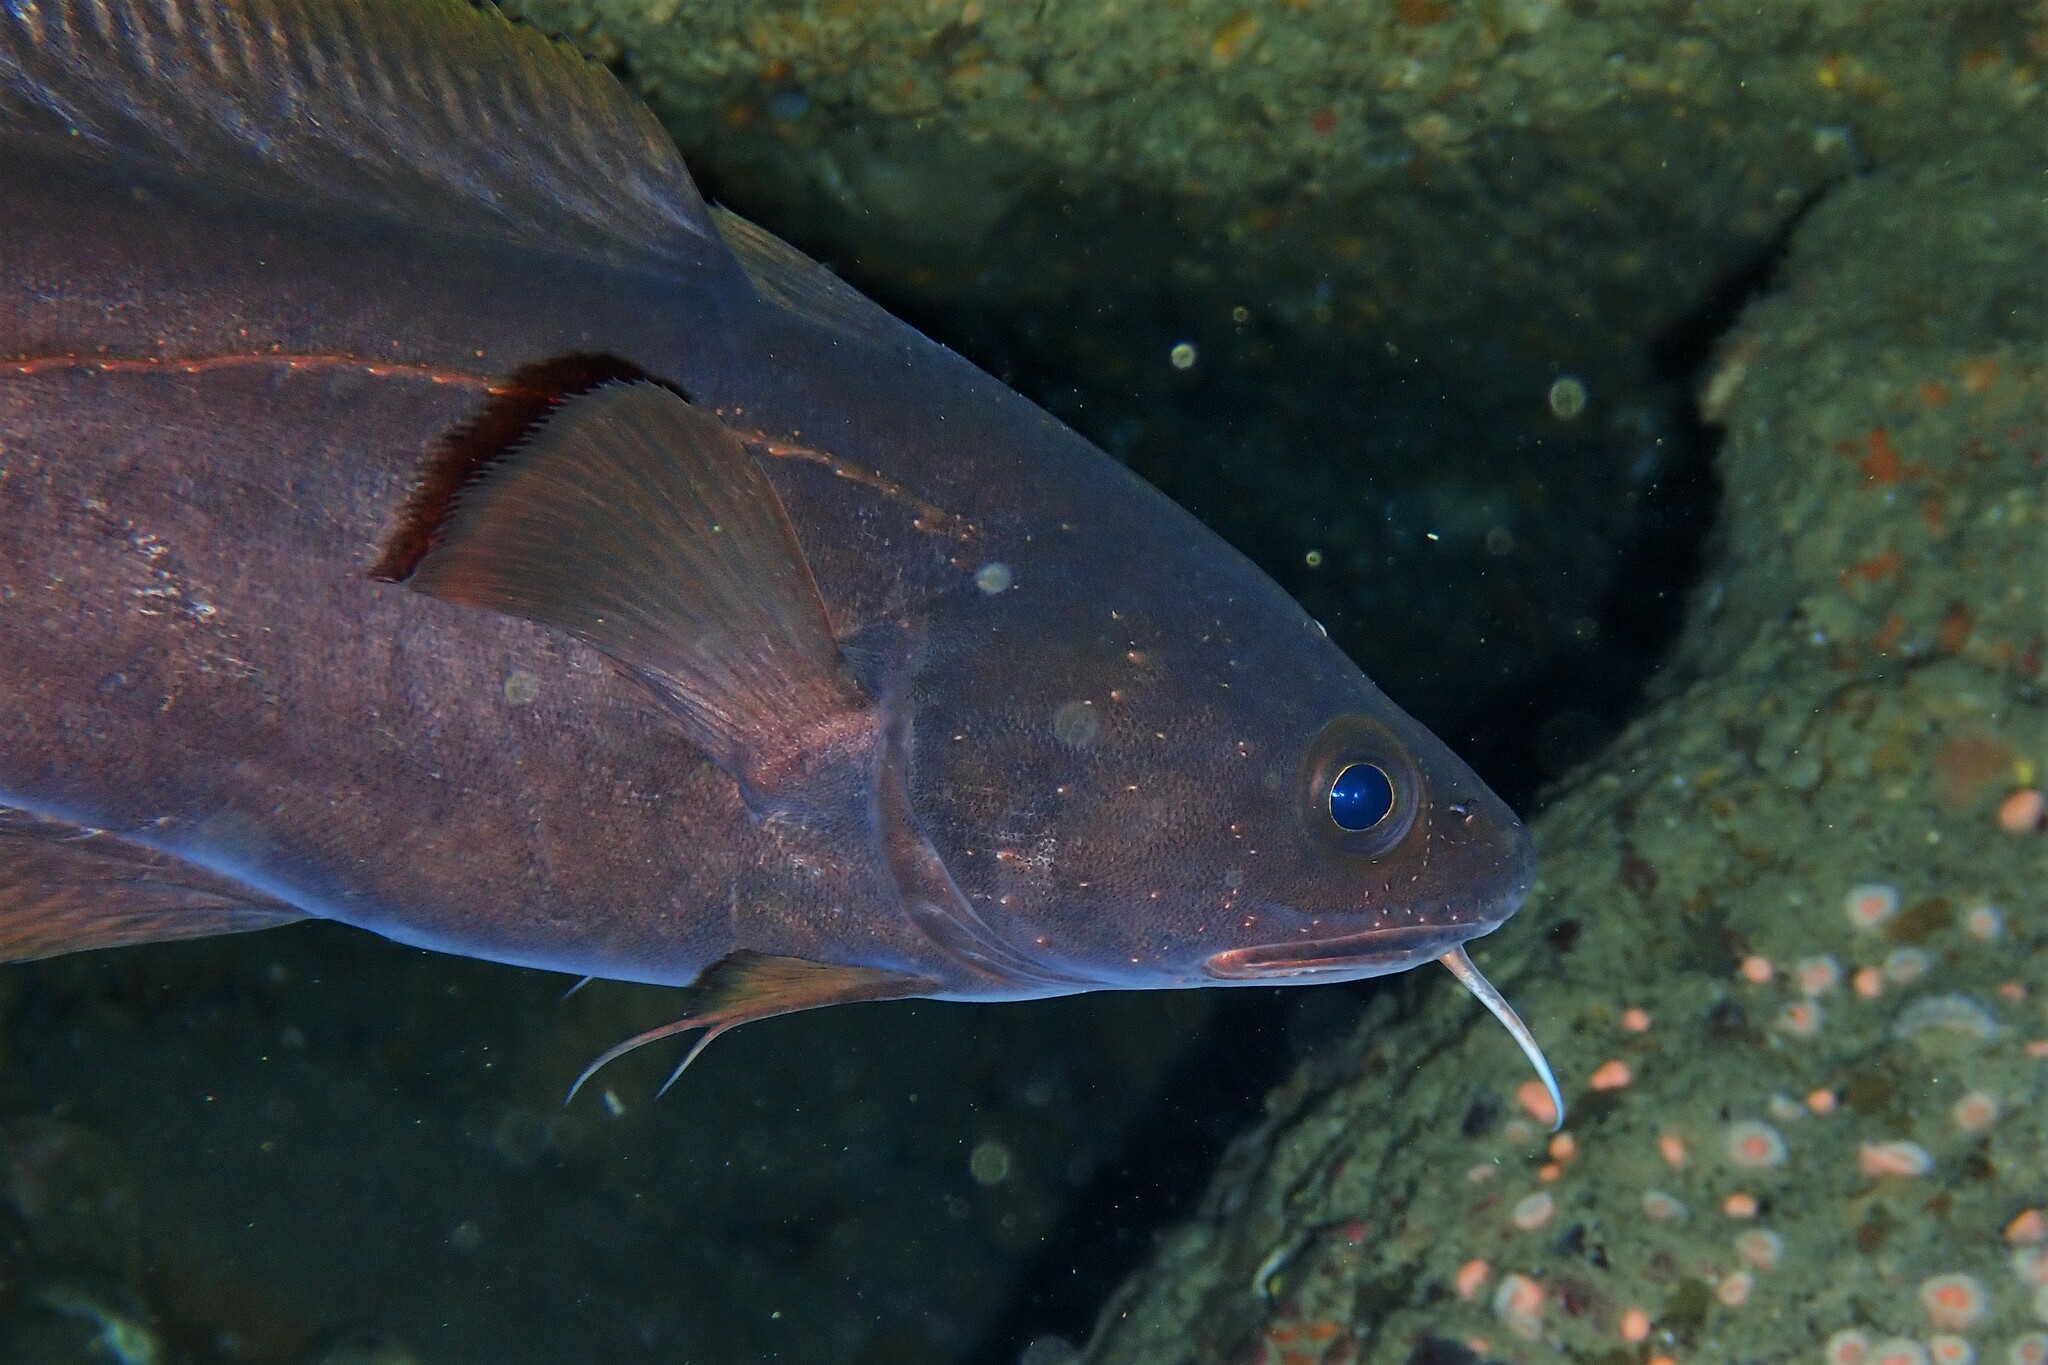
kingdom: Animalia
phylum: Chordata
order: Gadiformes
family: Moridae
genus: Lotella
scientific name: Lotella rhacina
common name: Rock cod
